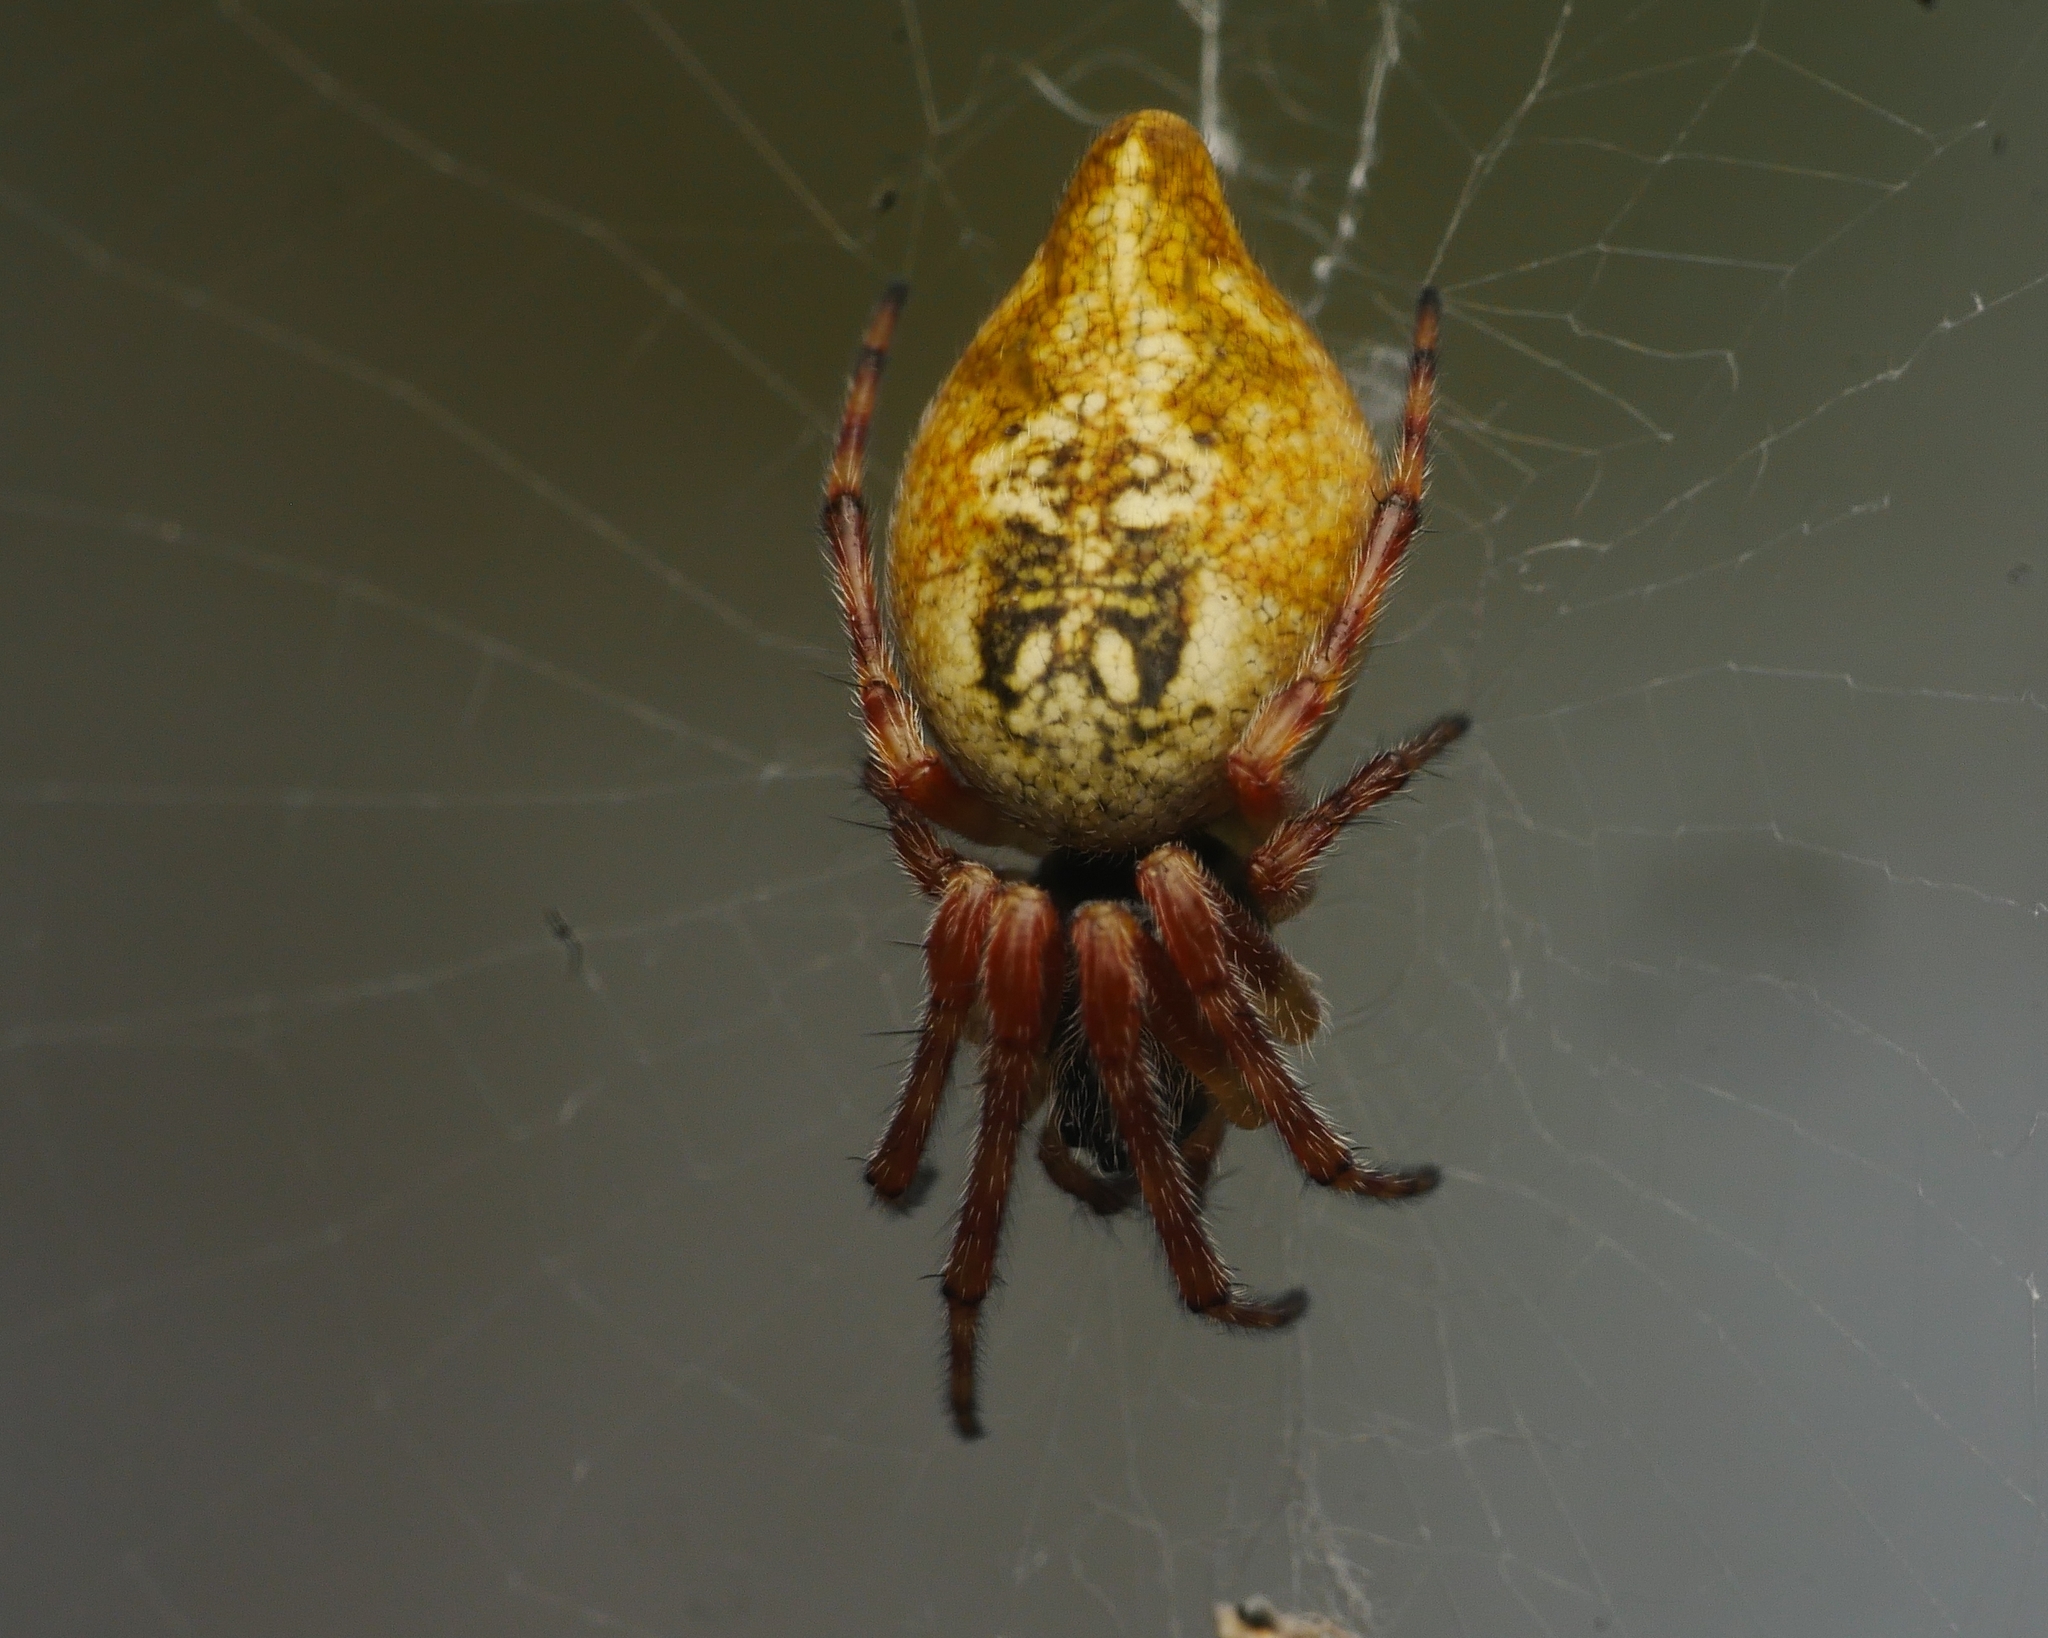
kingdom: Animalia
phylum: Arthropoda
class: Arachnida
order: Araneae
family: Araneidae
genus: Cyclosa
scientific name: Cyclosa conica
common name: Conical trashline orbweaver
